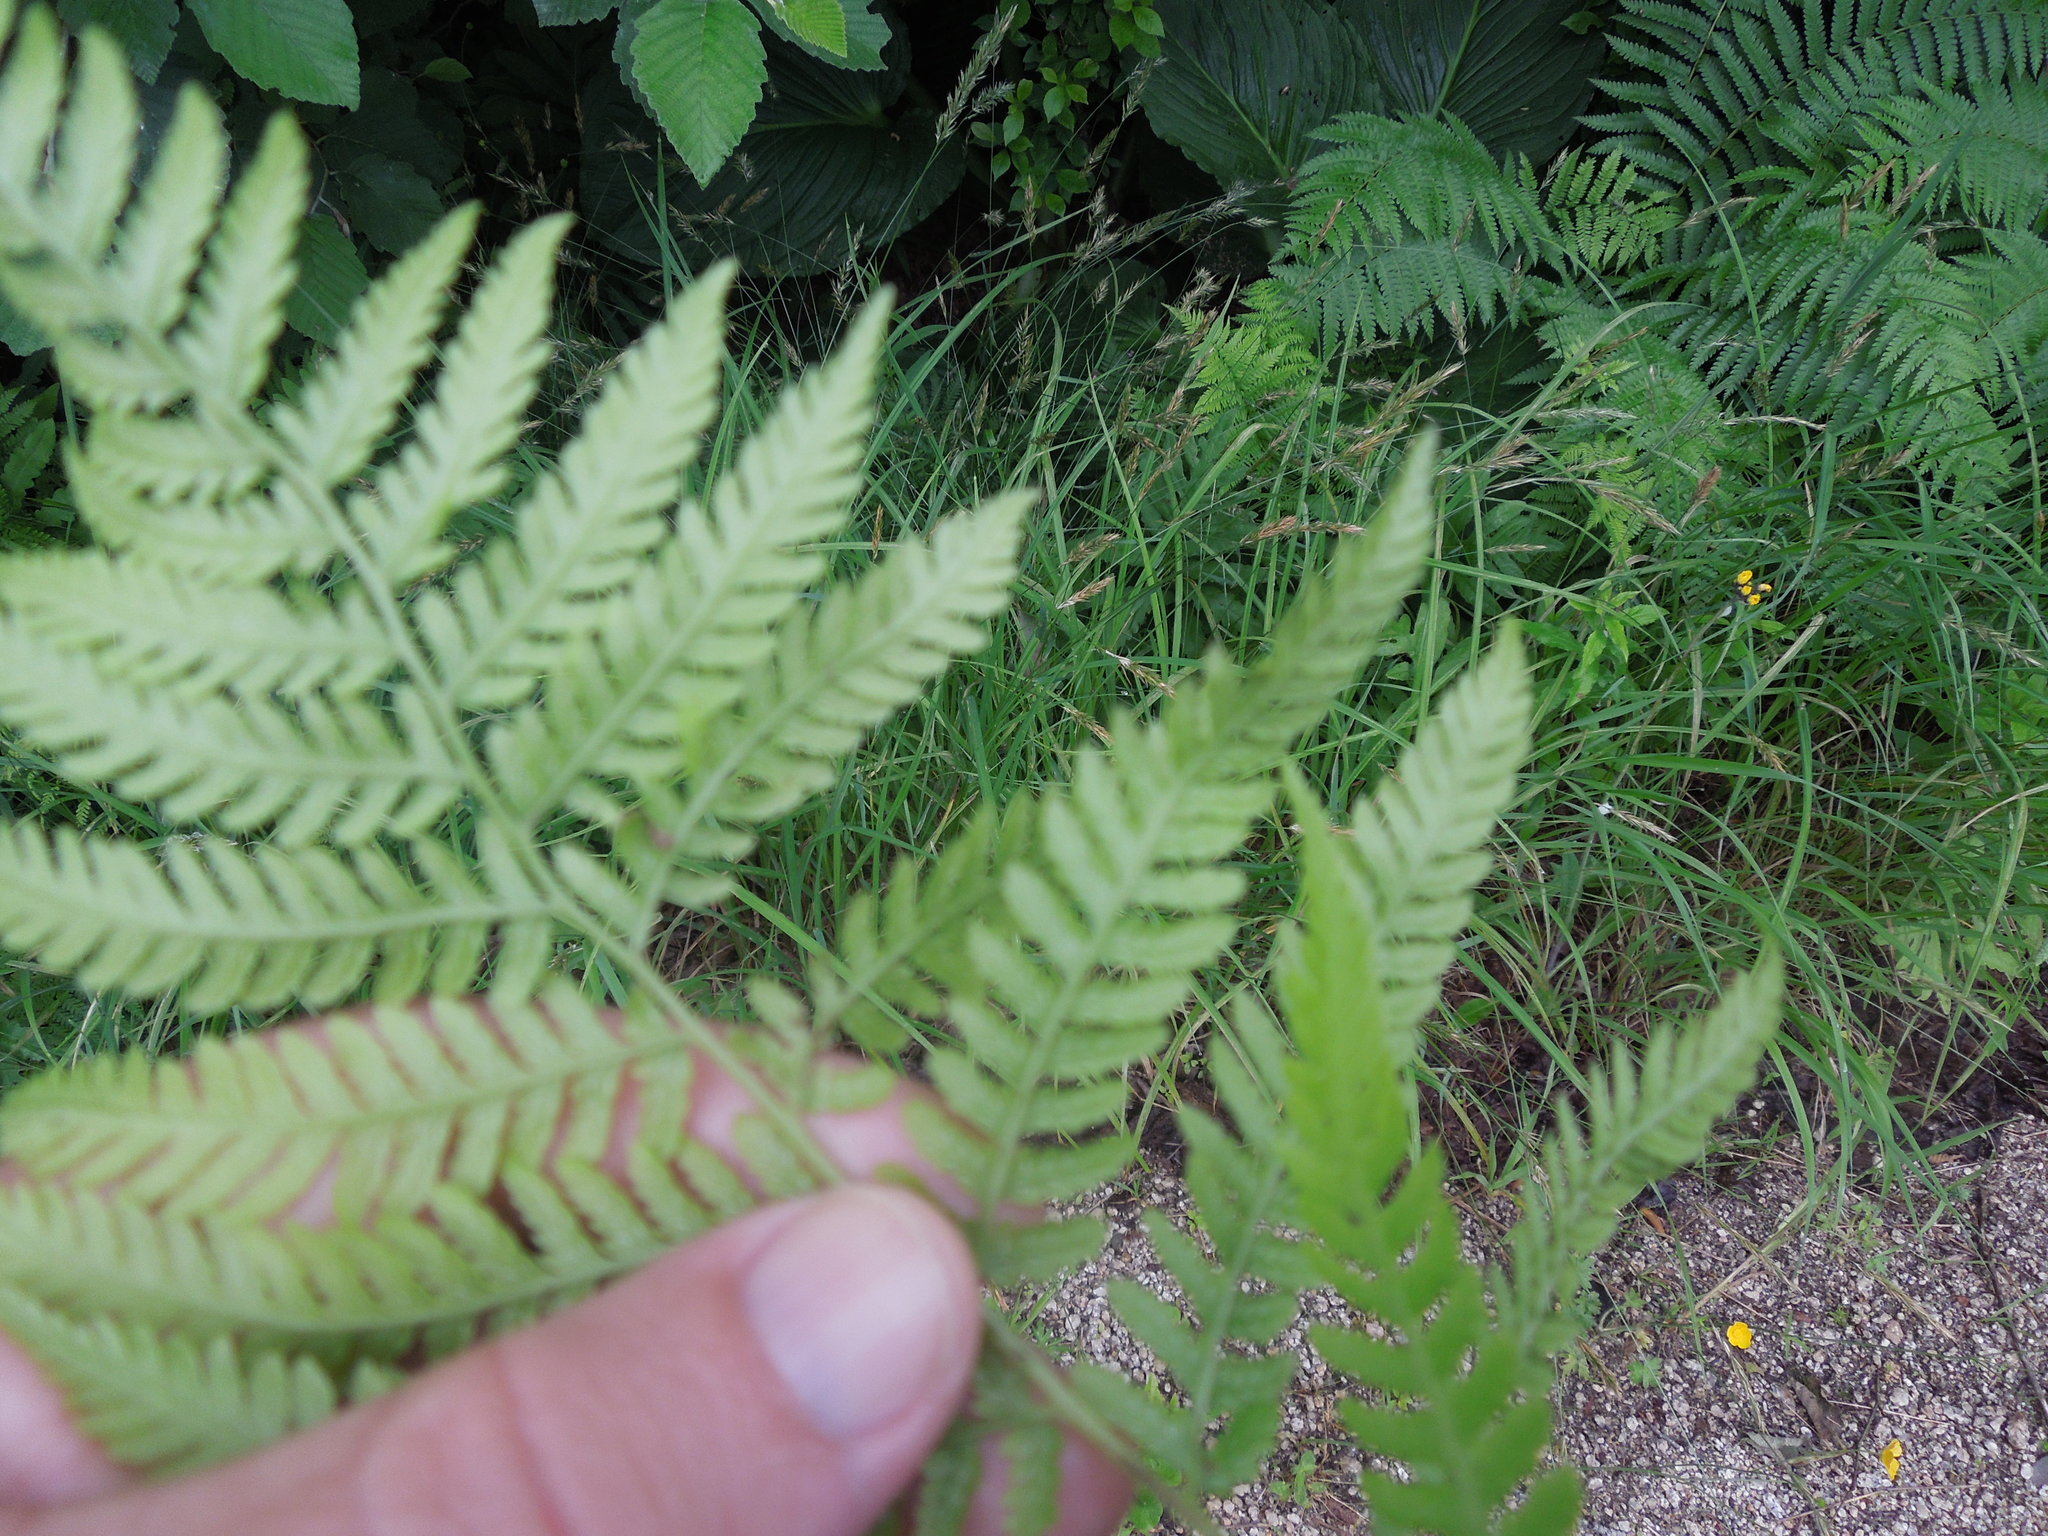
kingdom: Plantae
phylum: Tracheophyta
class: Polypodiopsida
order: Polypodiales
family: Athyriaceae
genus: Athyrium
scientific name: Athyrium angustum
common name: Northern lady fern
